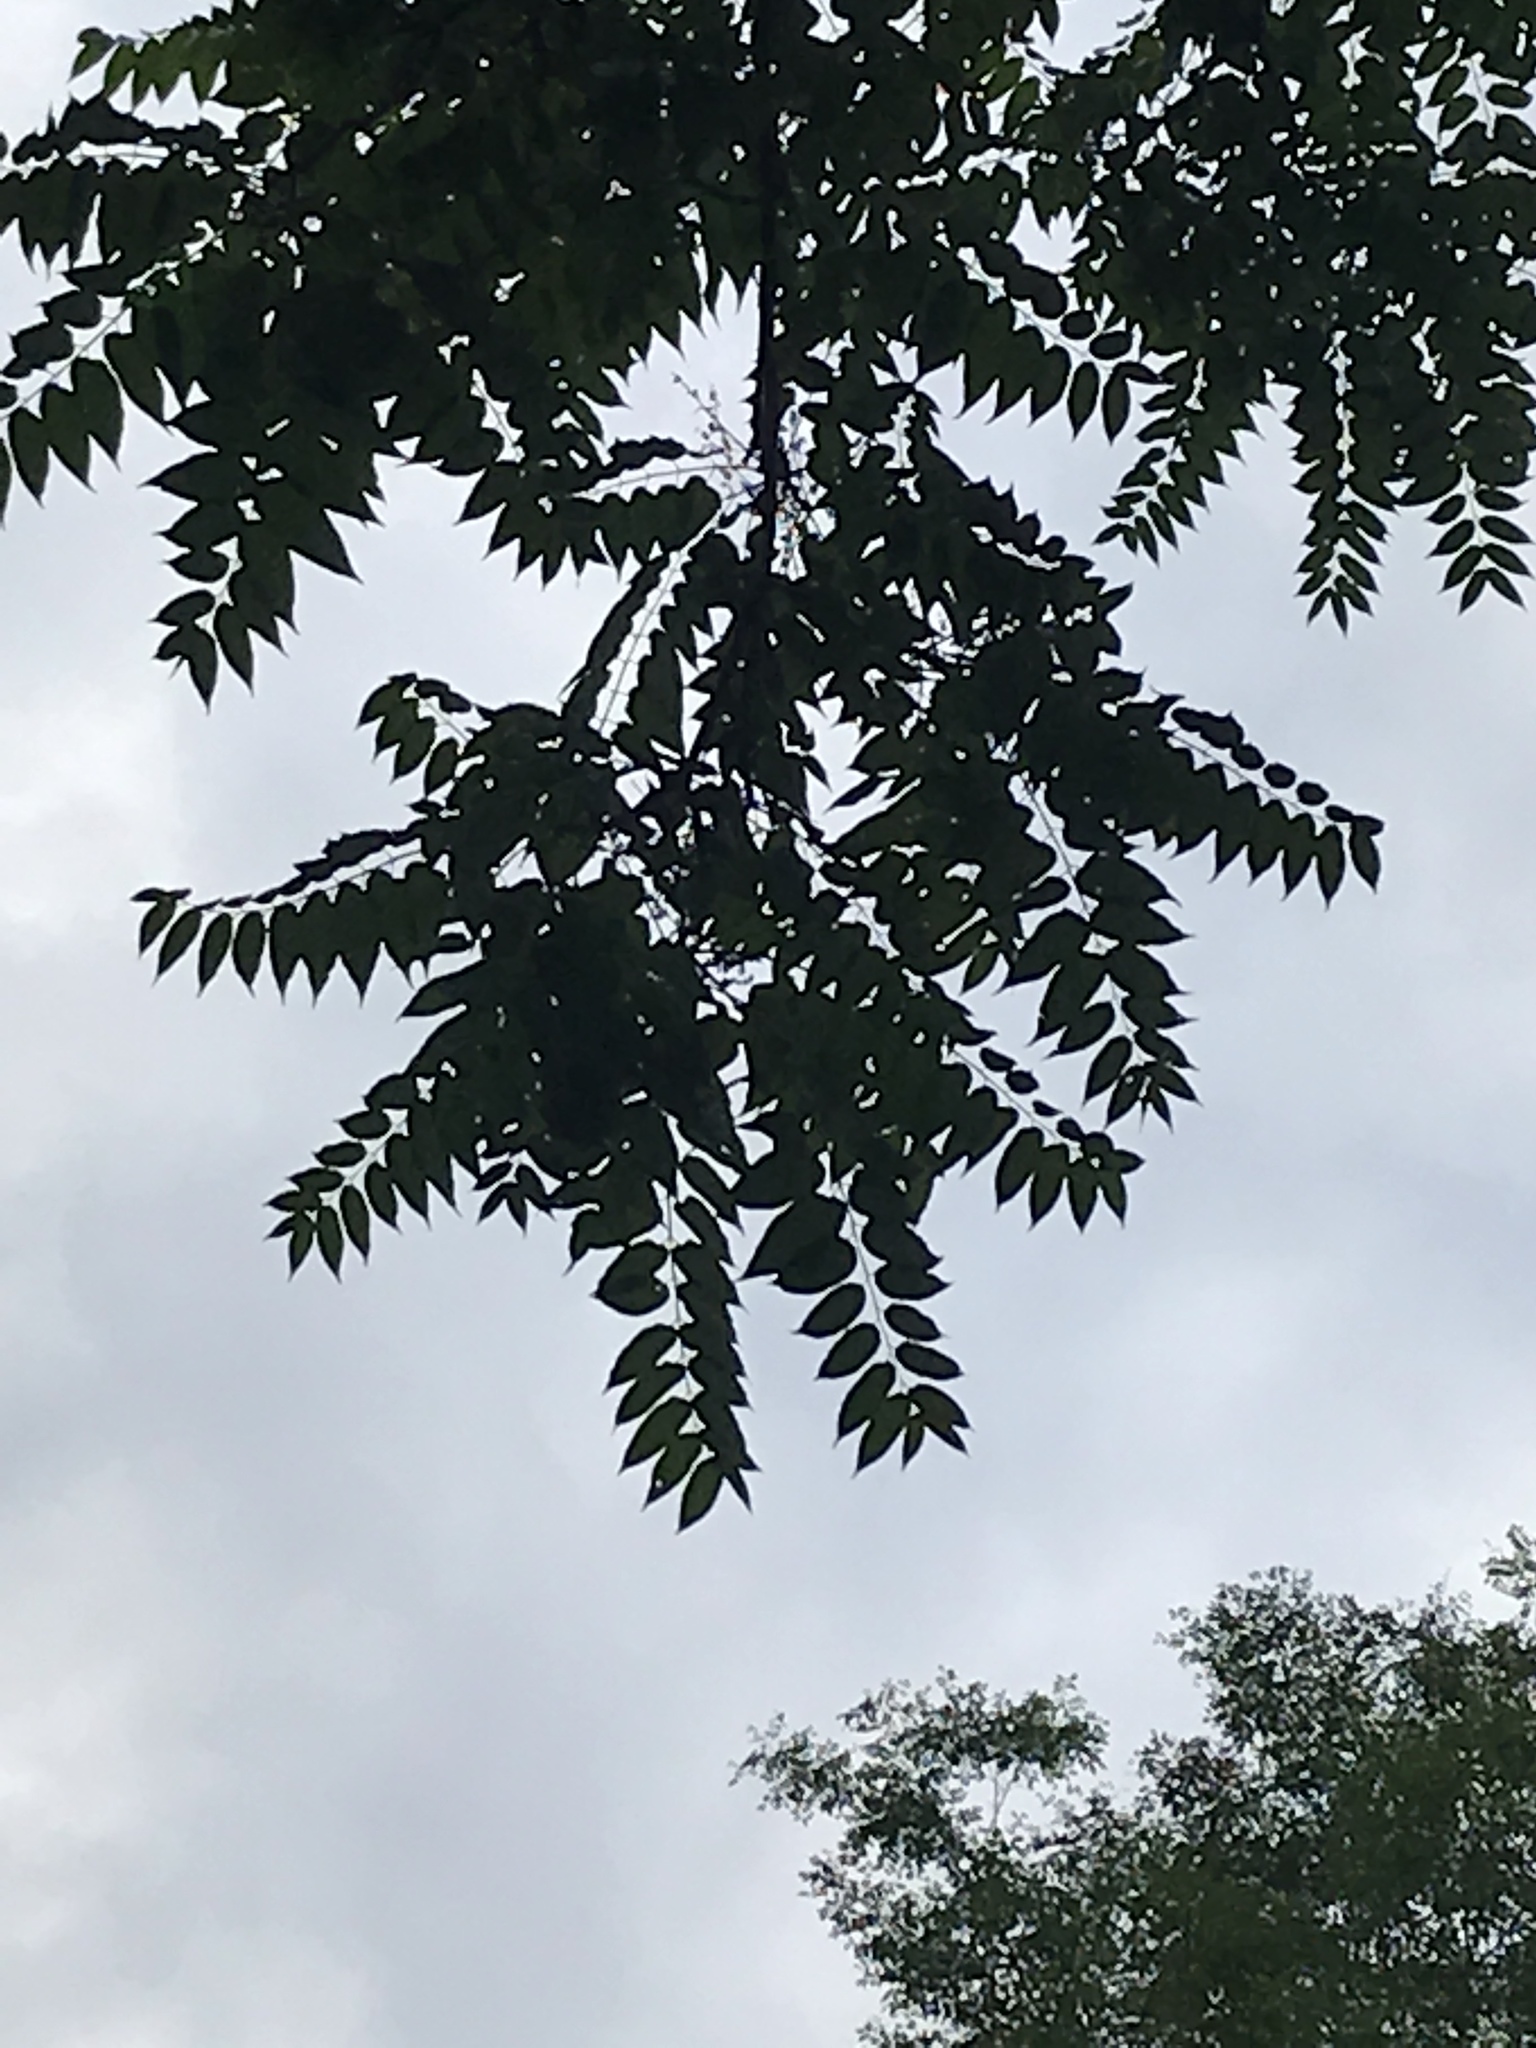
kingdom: Plantae
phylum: Tracheophyta
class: Magnoliopsida
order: Sapindales
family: Simaroubaceae
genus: Ailanthus
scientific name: Ailanthus altissima
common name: Tree-of-heaven
